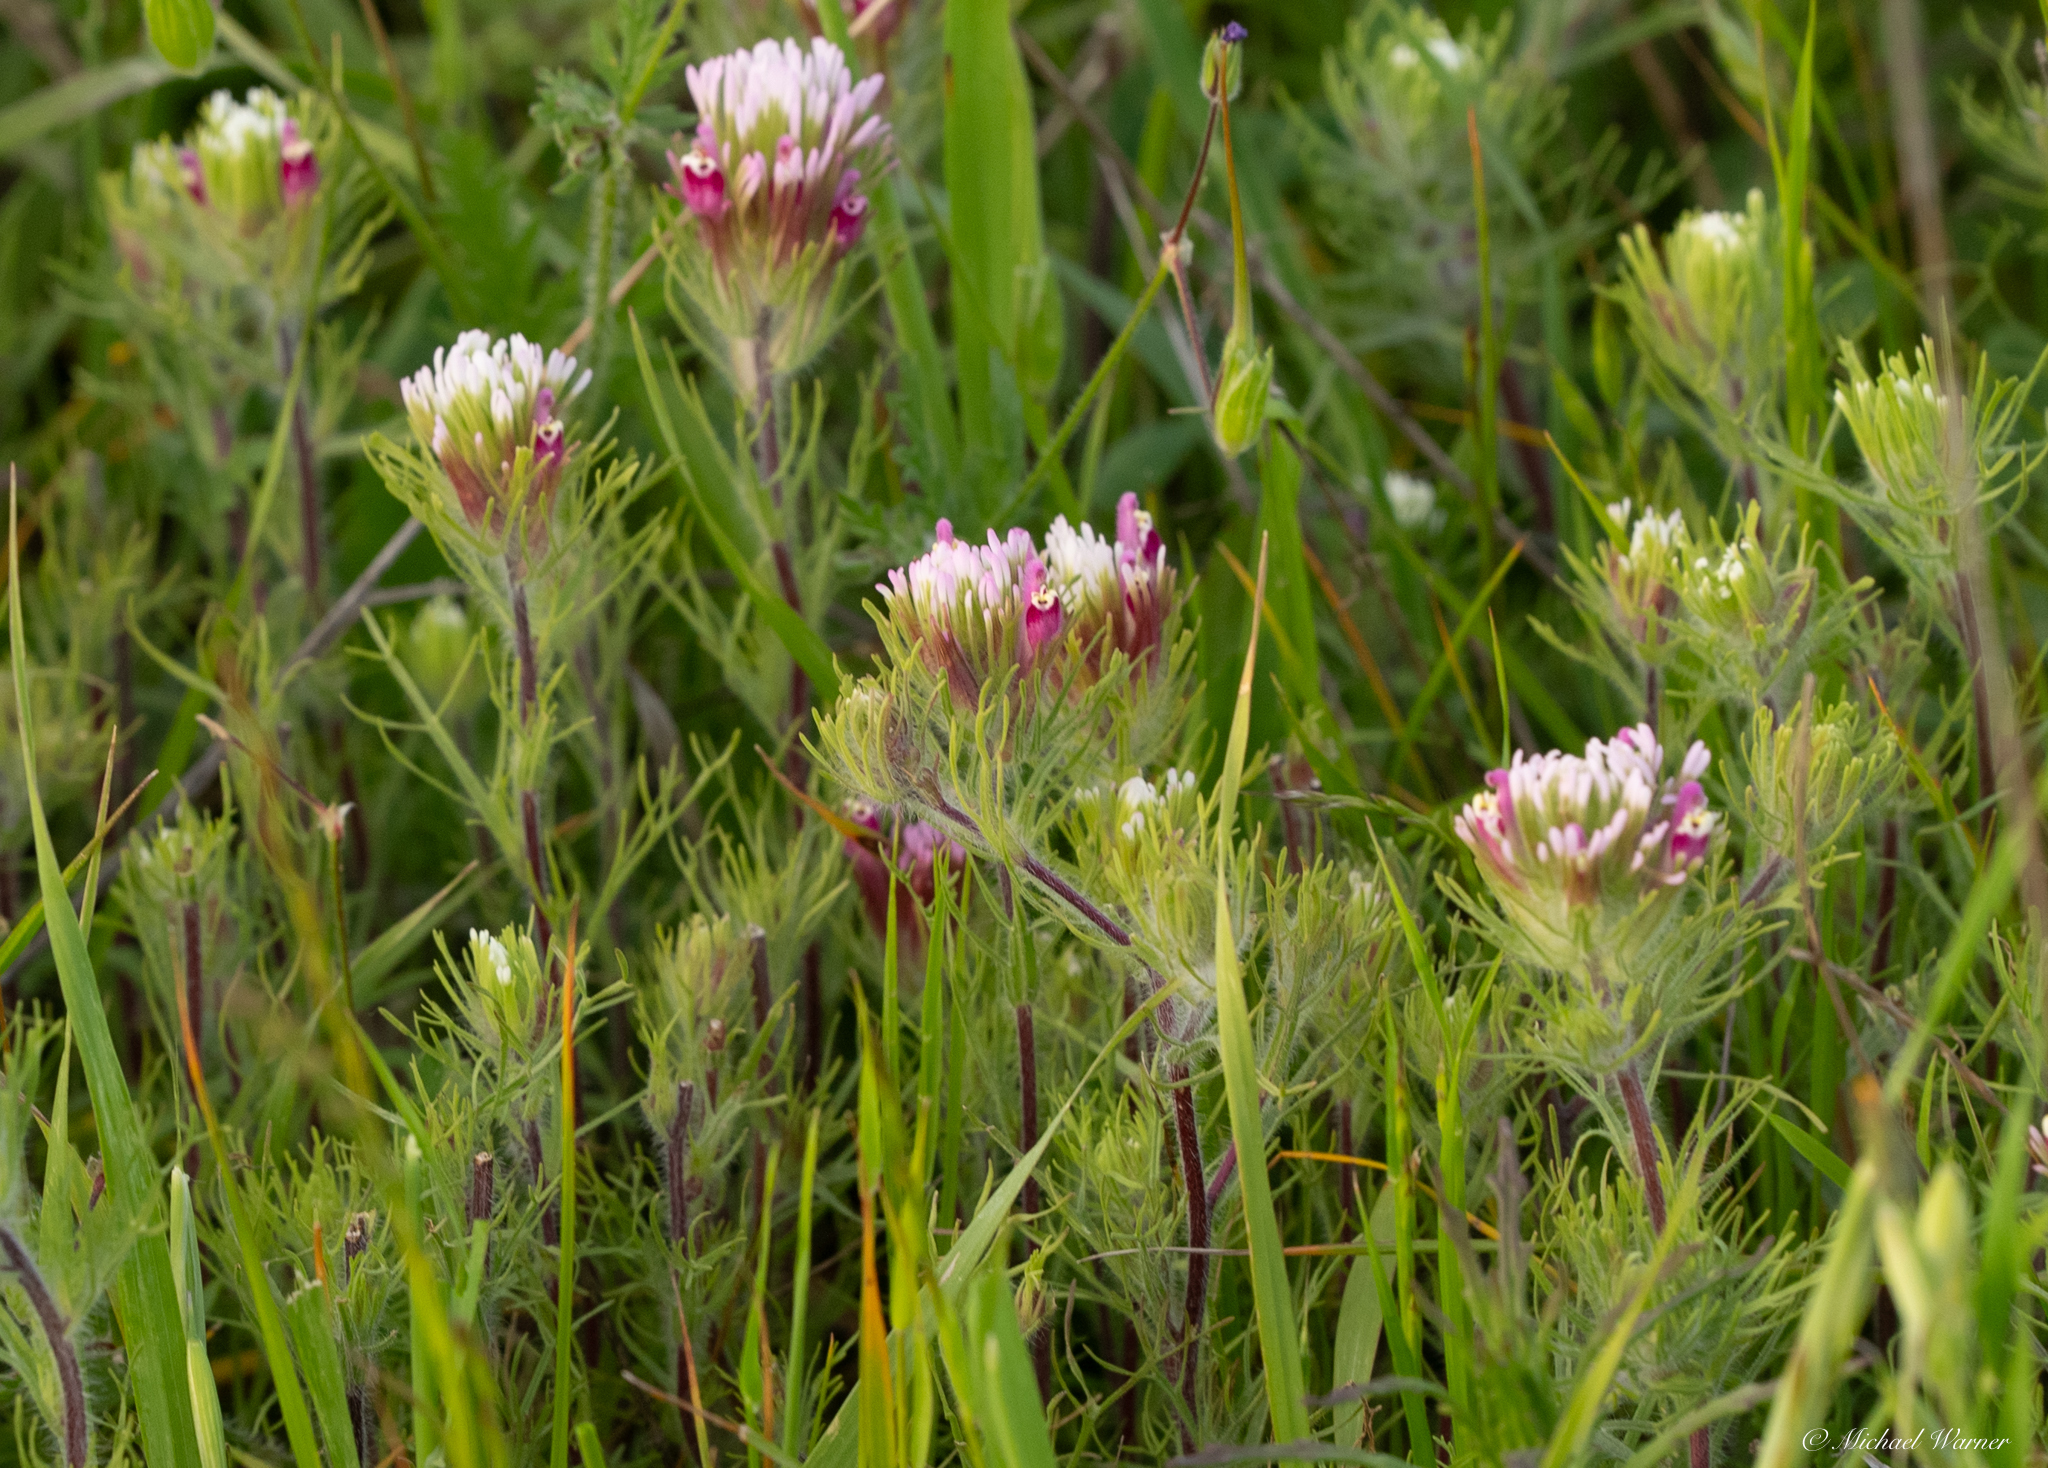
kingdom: Plantae
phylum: Tracheophyta
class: Magnoliopsida
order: Lamiales
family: Orobanchaceae
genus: Castilleja
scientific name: Castilleja exserta
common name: Purple owl-clover
